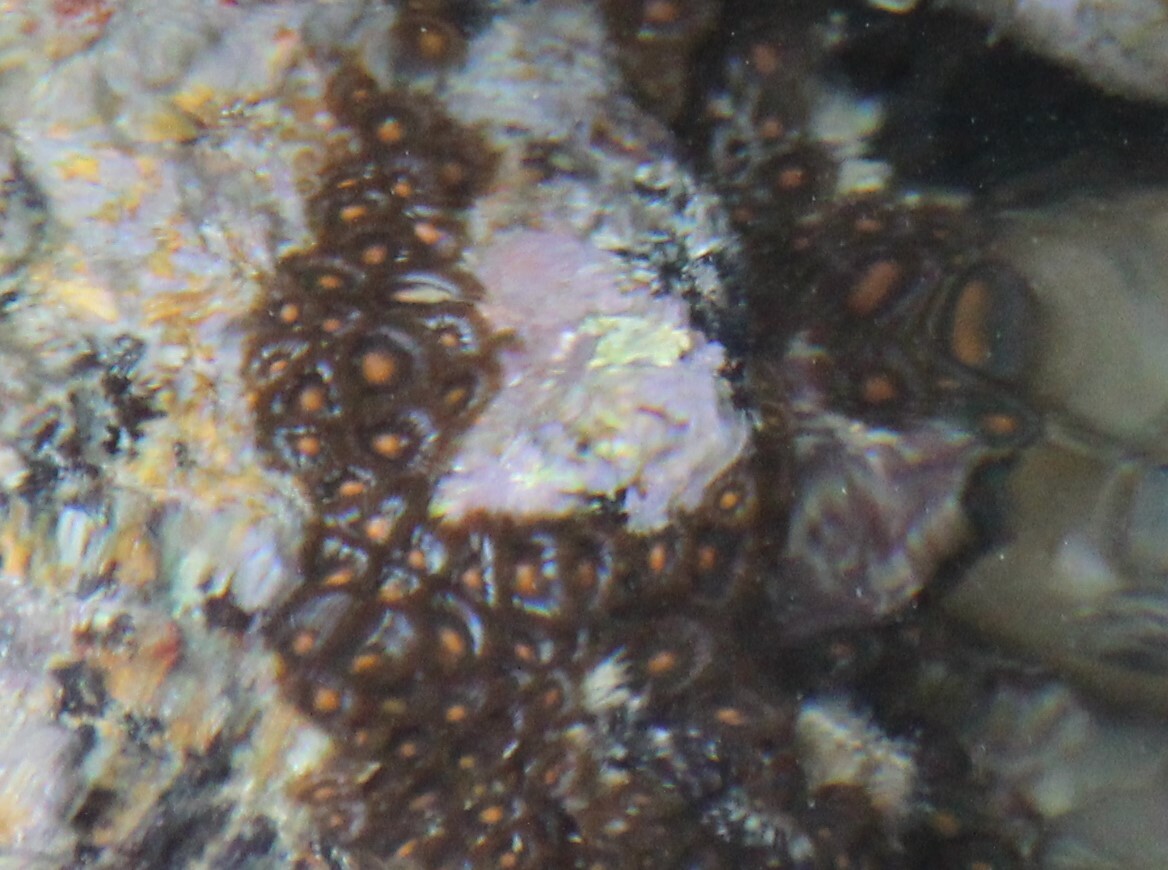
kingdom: Animalia
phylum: Cnidaria
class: Anthozoa
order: Zoantharia
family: Zoanthidae
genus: Zoanthus
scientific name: Zoanthus sansibaricus
